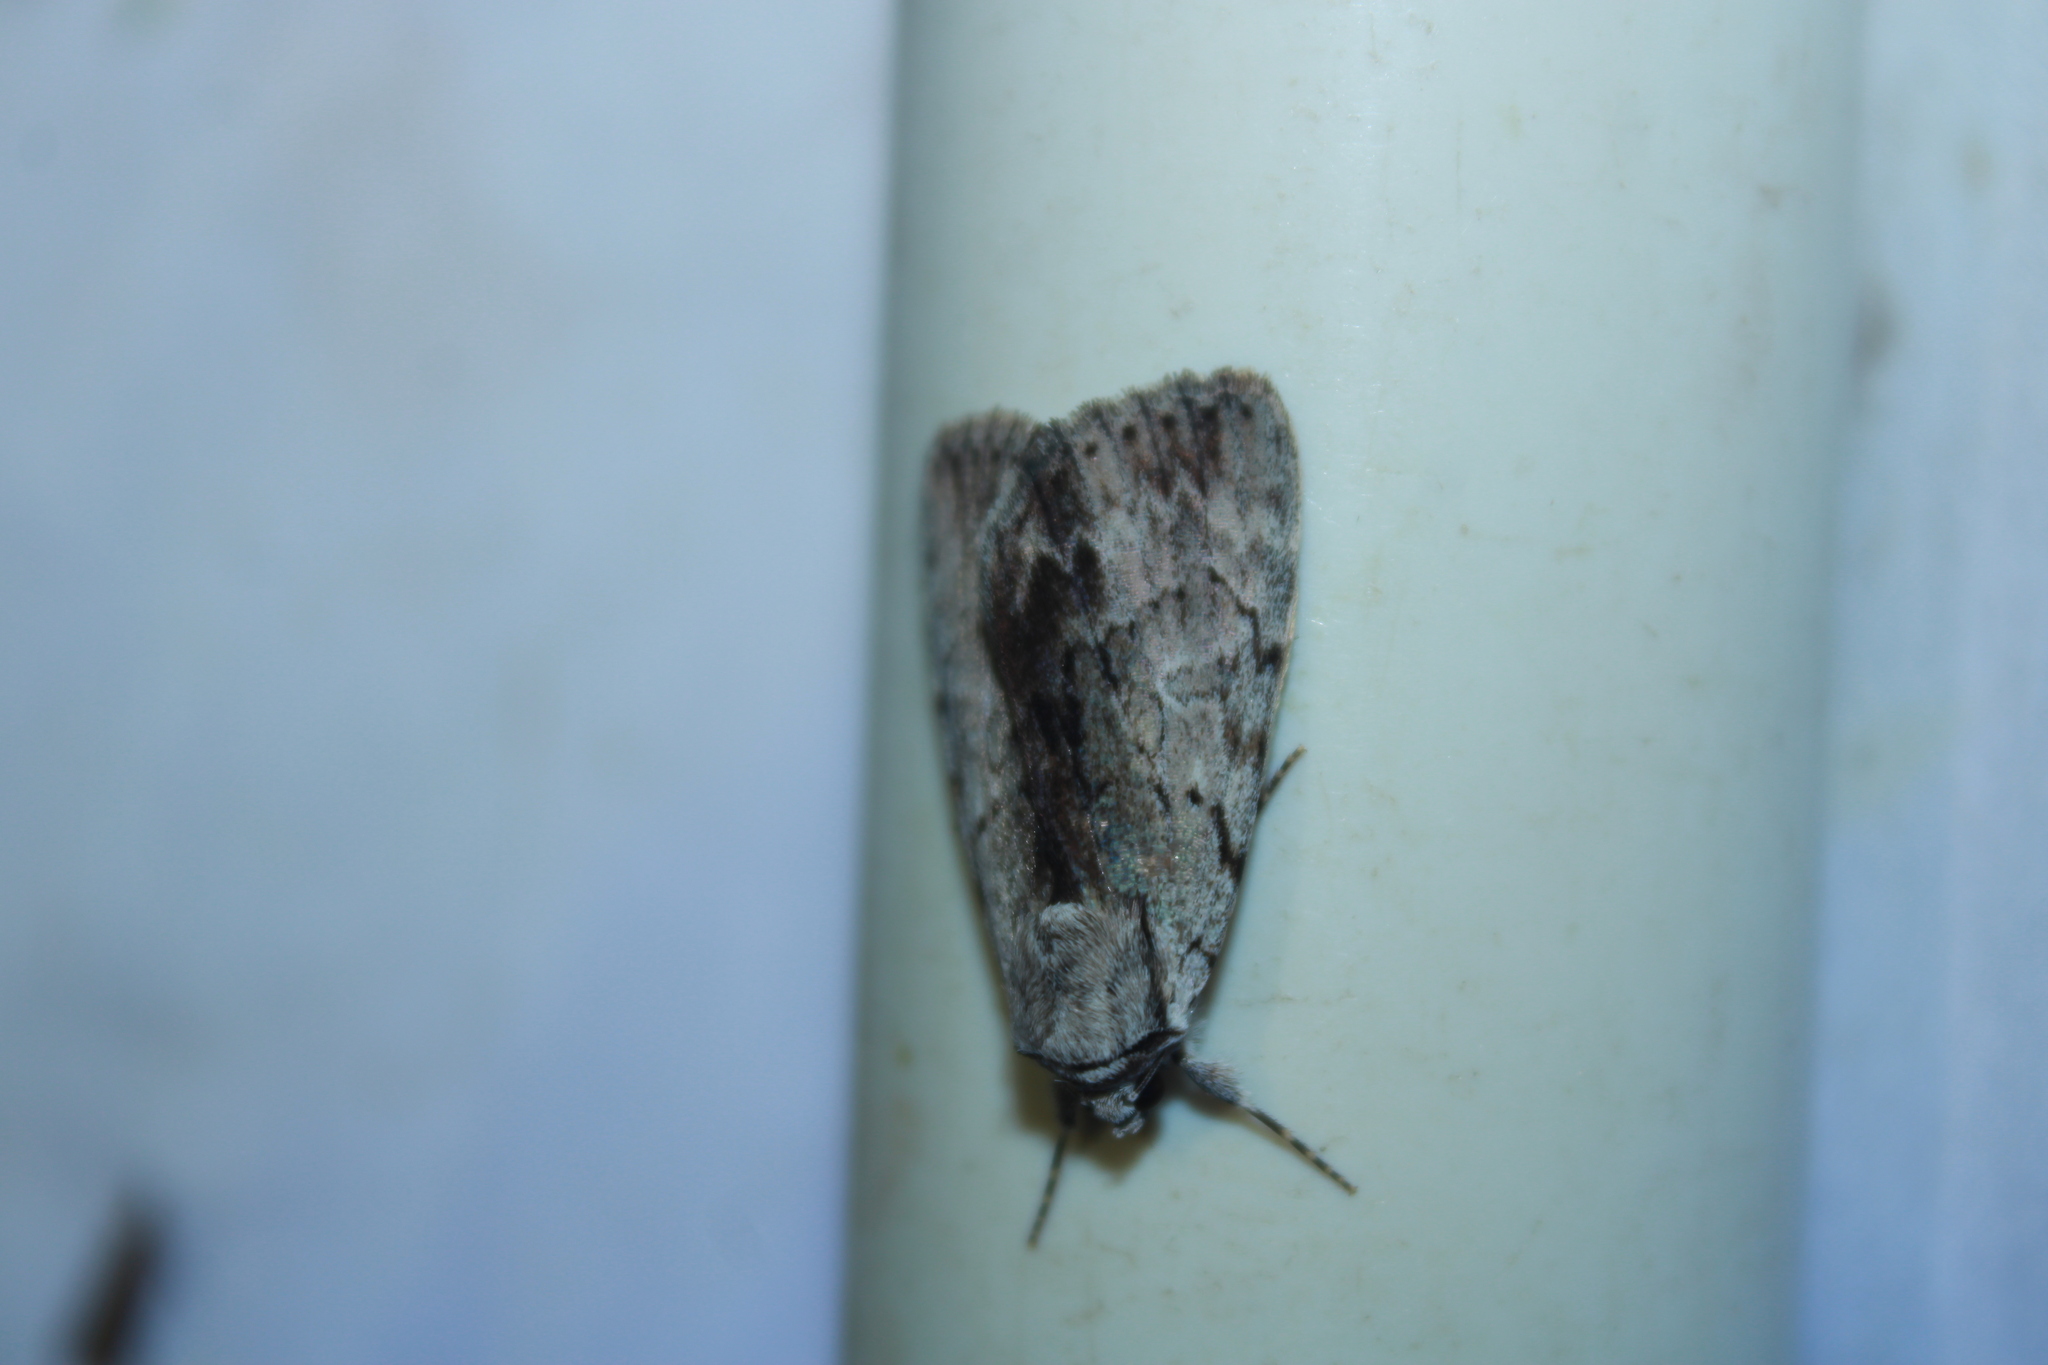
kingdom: Animalia
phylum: Arthropoda
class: Insecta
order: Lepidoptera
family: Erebidae
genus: Catocala
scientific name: Catocala gracilis
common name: Graceful underwing
